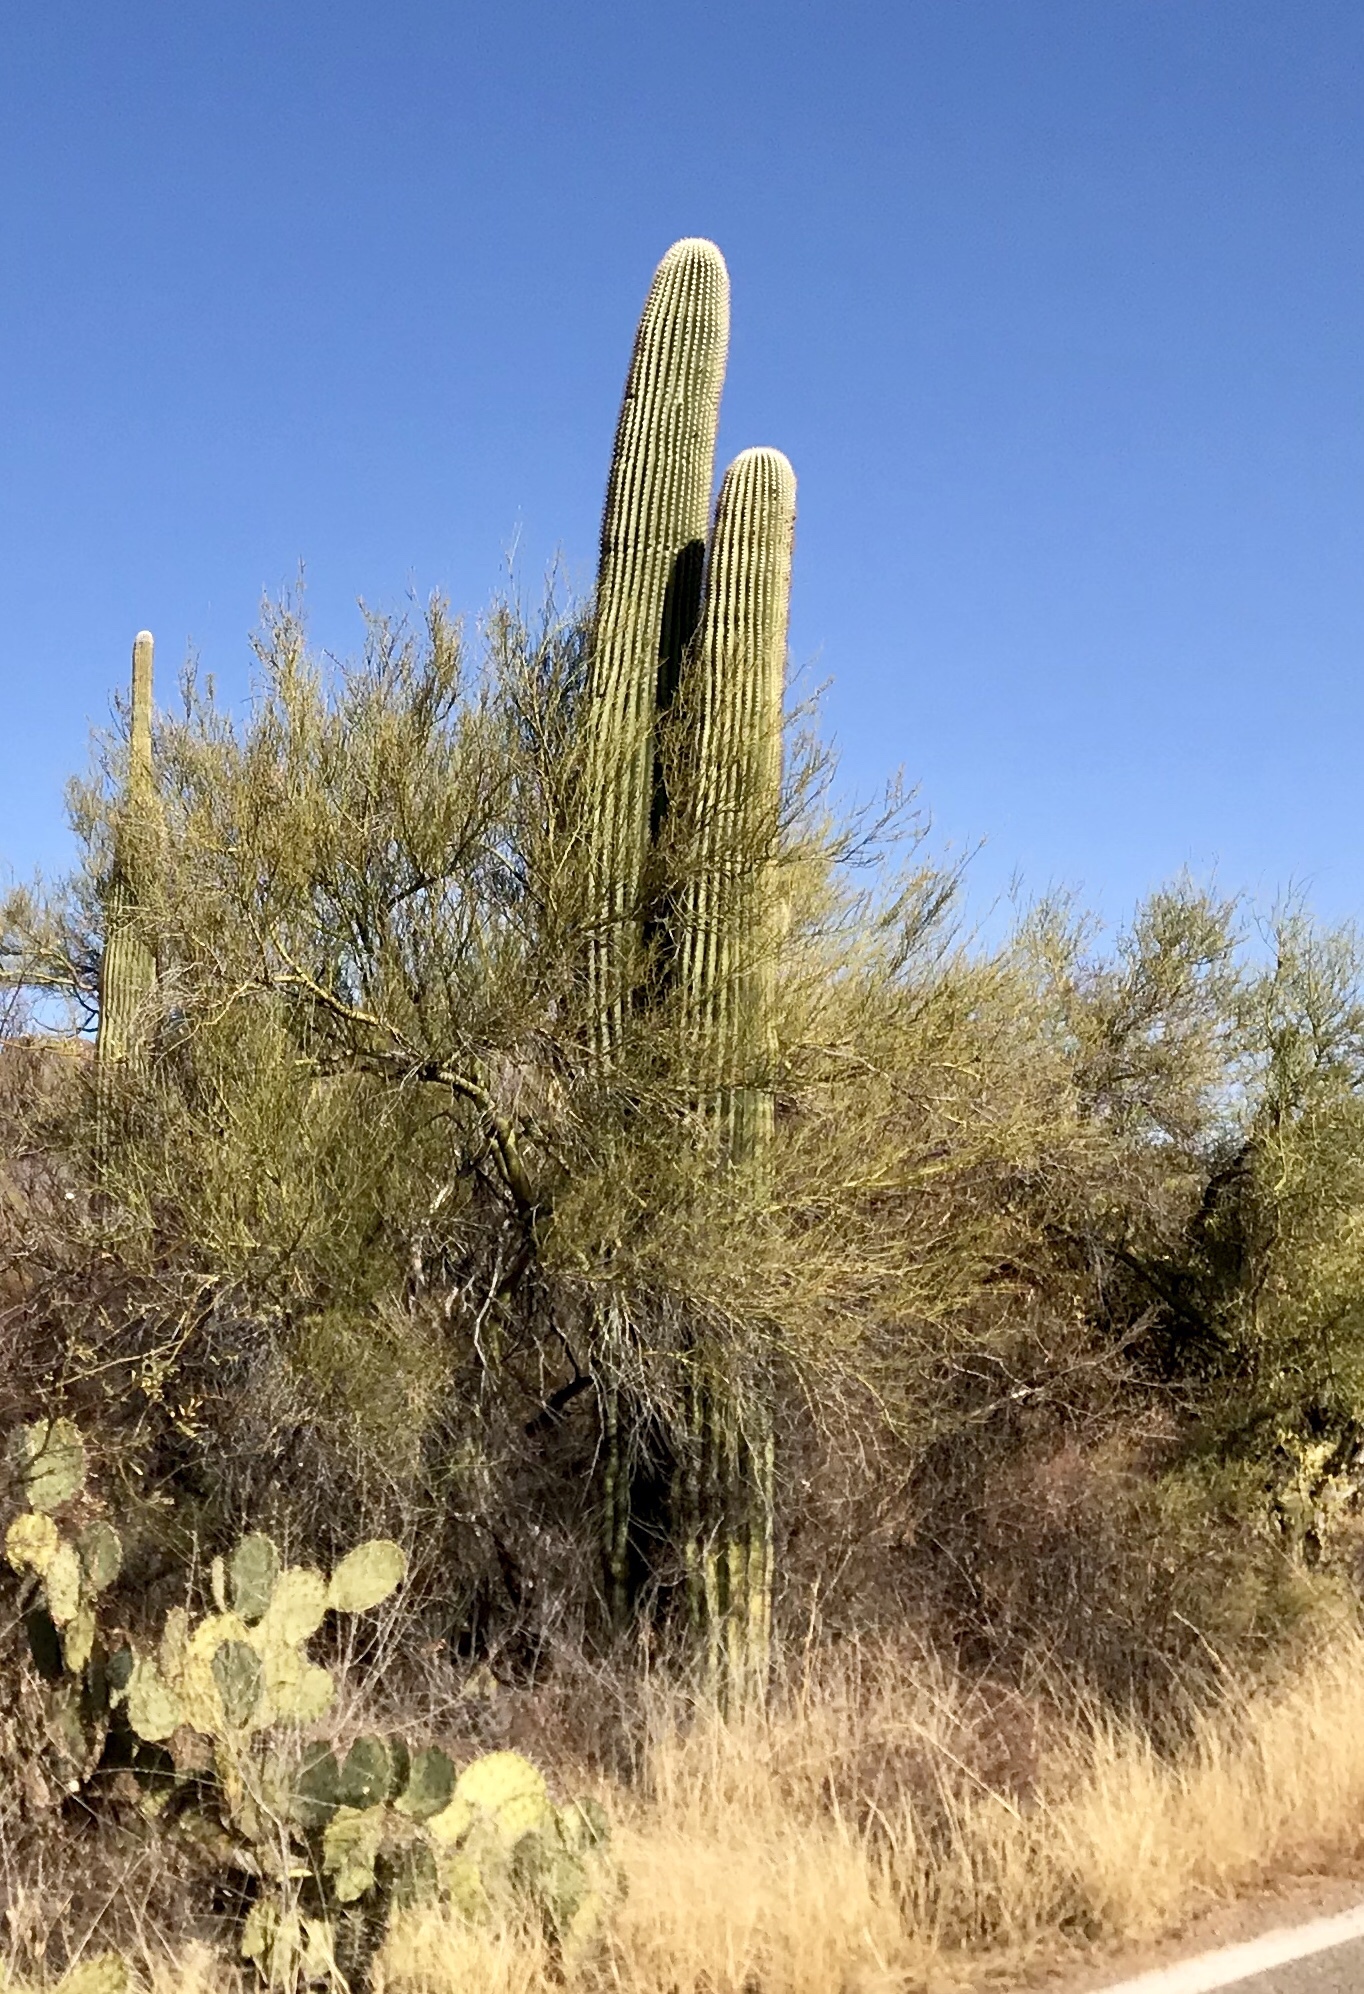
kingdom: Plantae
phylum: Tracheophyta
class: Magnoliopsida
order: Caryophyllales
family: Cactaceae
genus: Carnegiea
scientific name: Carnegiea gigantea
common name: Saguaro
